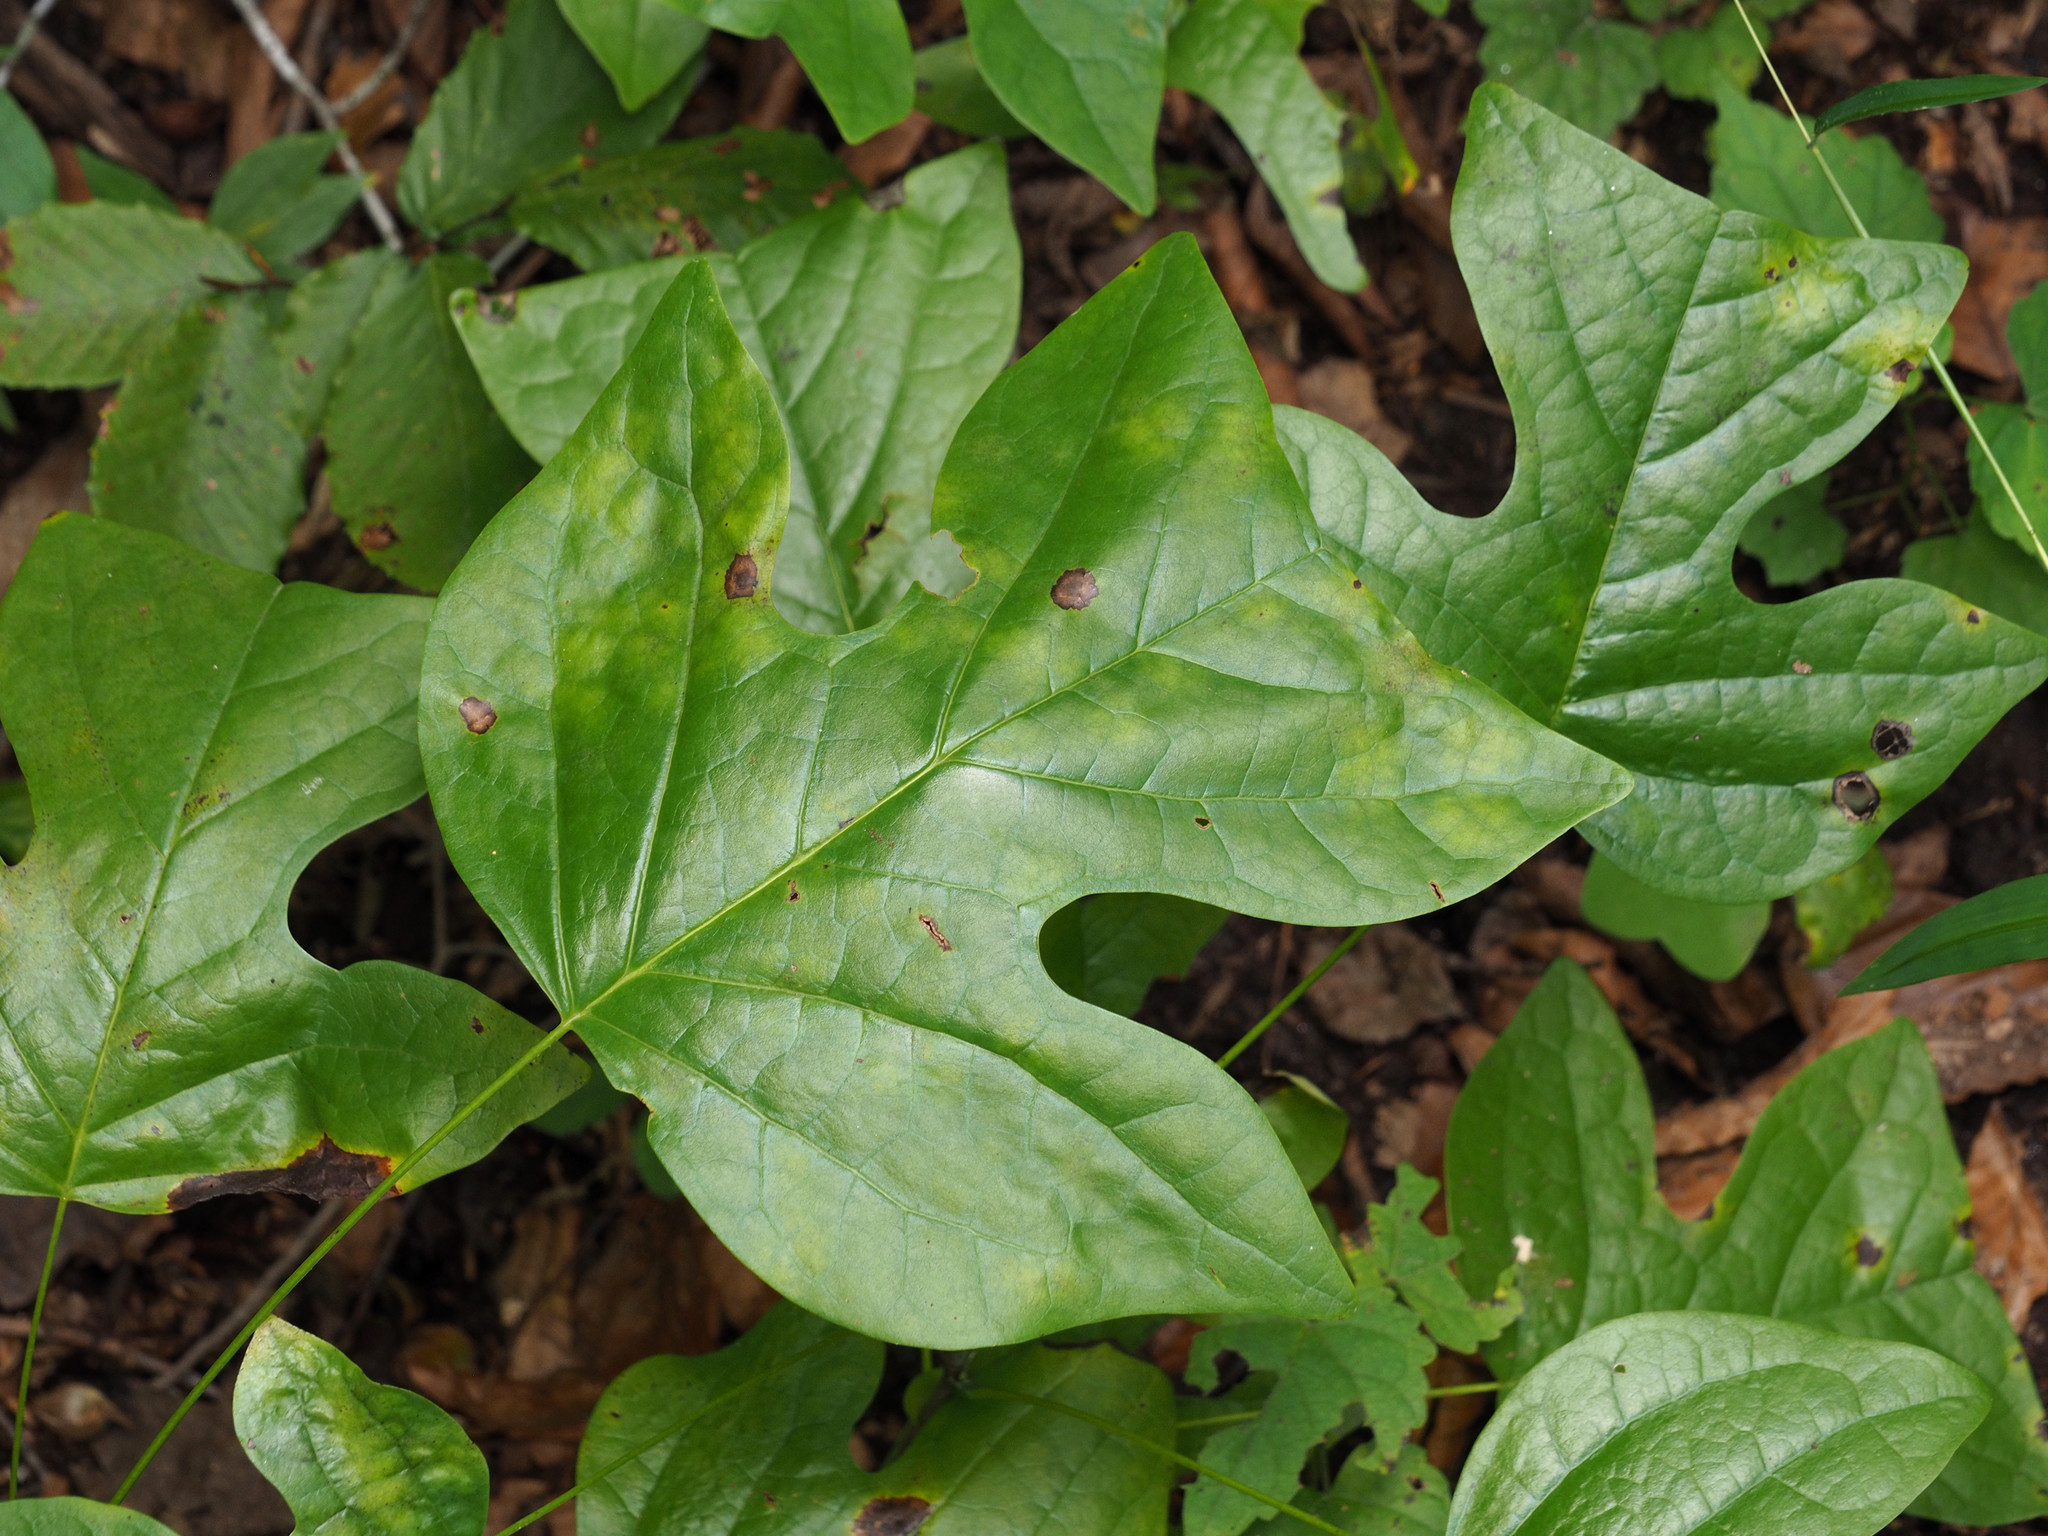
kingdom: Plantae
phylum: Tracheophyta
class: Magnoliopsida
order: Magnoliales
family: Magnoliaceae
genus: Liriodendron
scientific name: Liriodendron tulipifera
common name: Tulip tree
